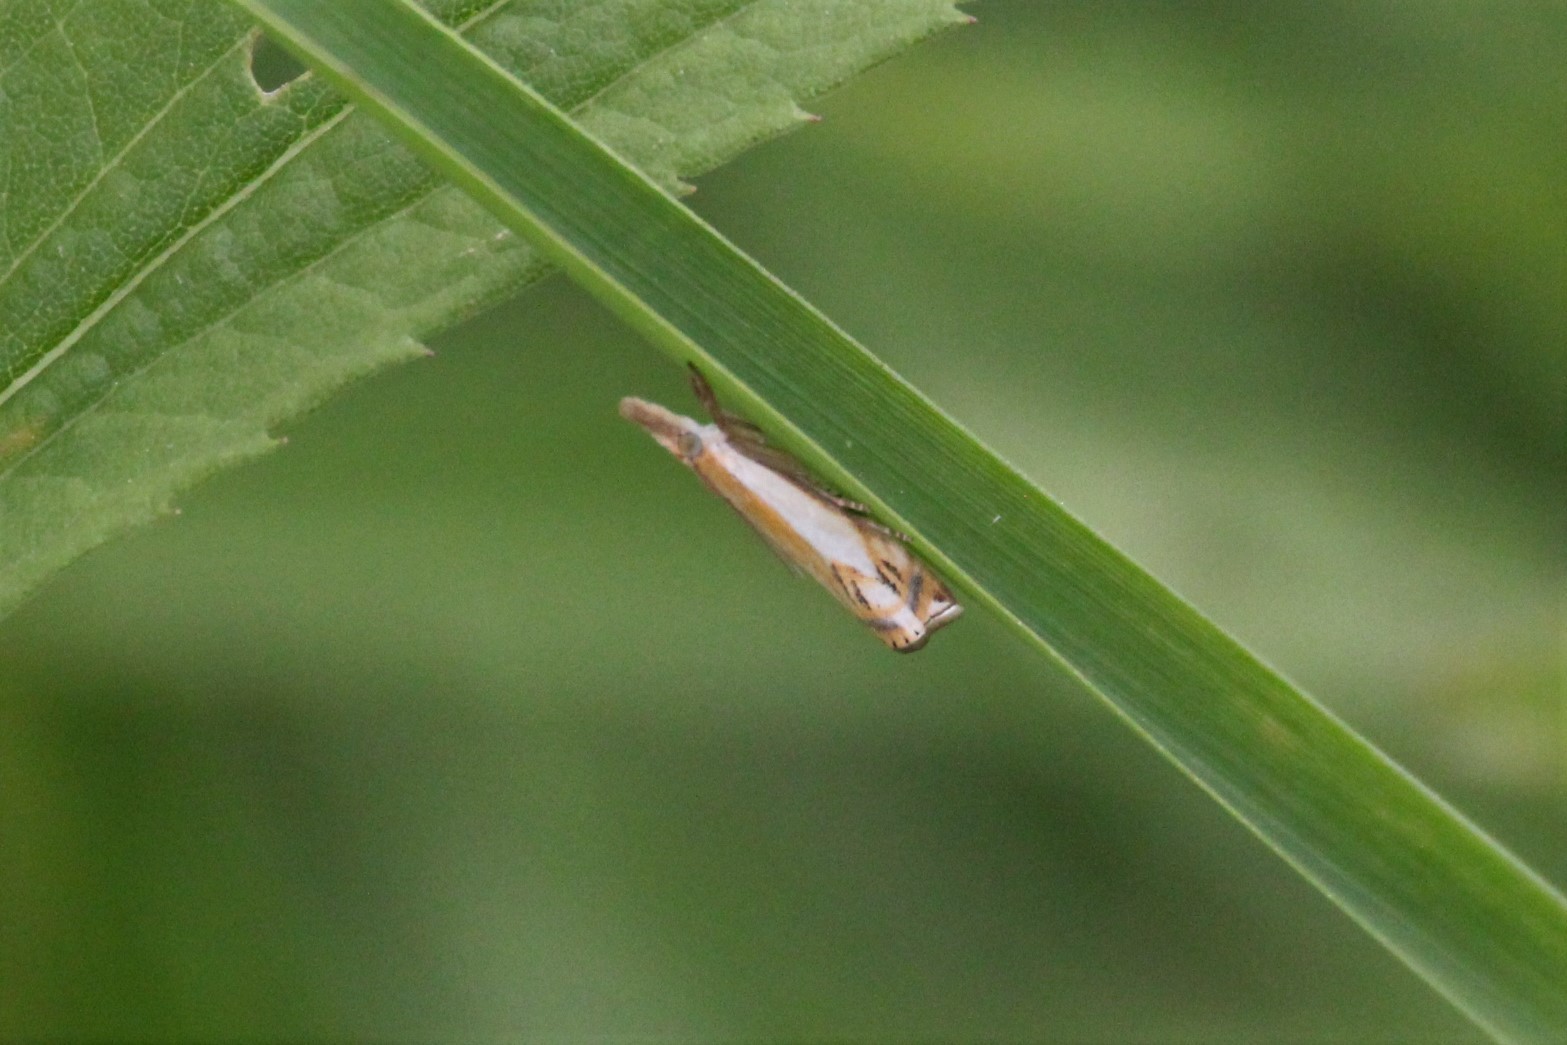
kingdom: Animalia
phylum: Arthropoda
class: Insecta
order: Lepidoptera
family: Crambidae
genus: Crambus
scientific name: Crambus agitatellus
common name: Double-banded grass-veneer
